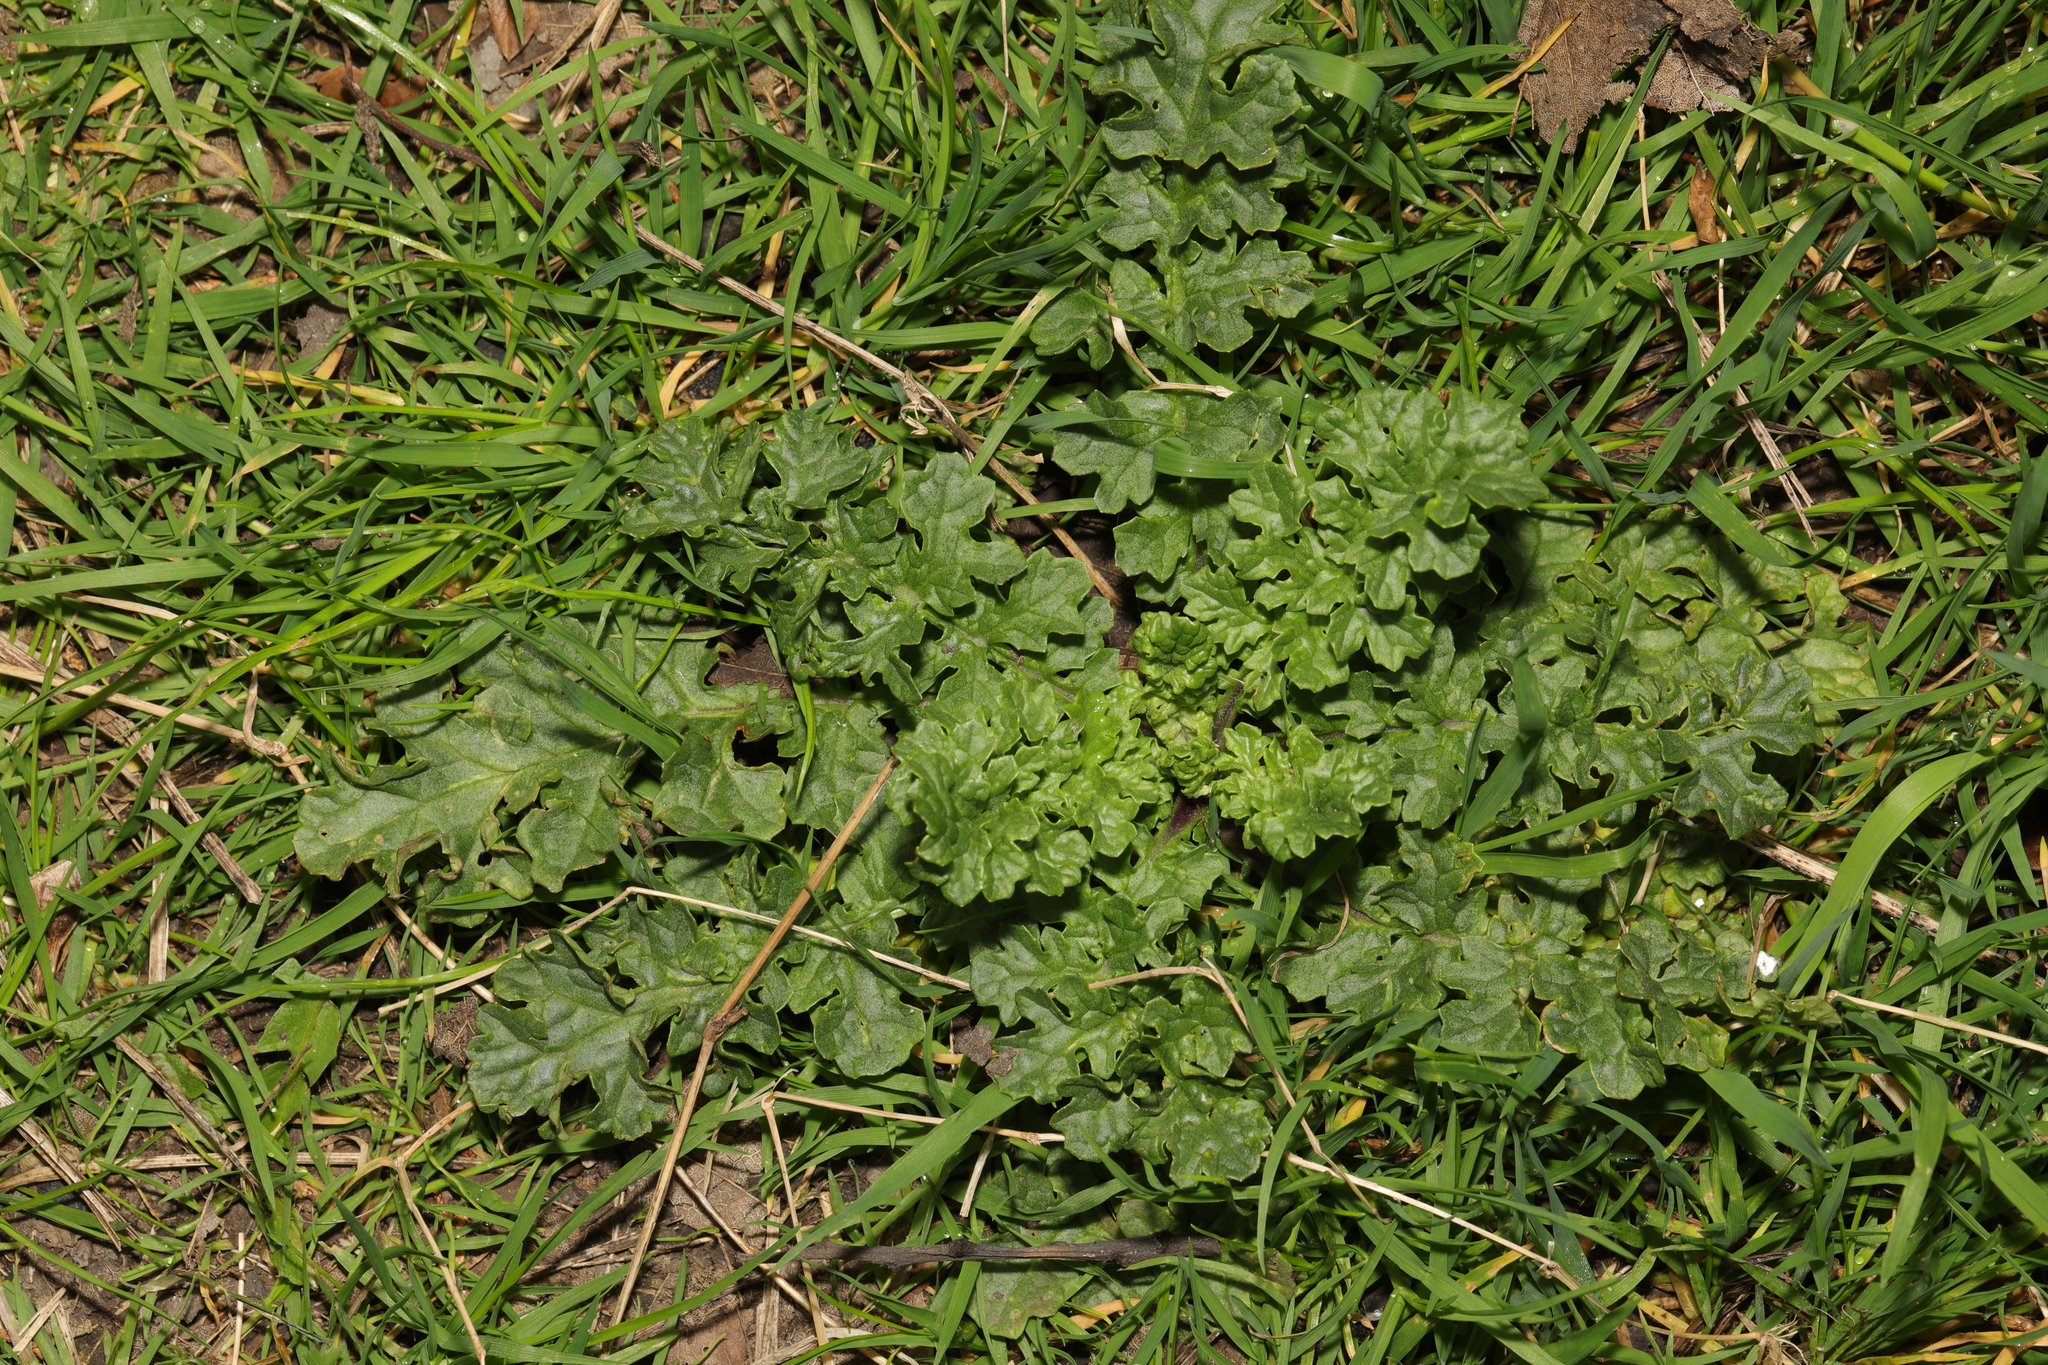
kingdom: Plantae
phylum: Tracheophyta
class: Magnoliopsida
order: Asterales
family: Asteraceae
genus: Jacobaea
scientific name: Jacobaea vulgaris
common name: Stinking willie
